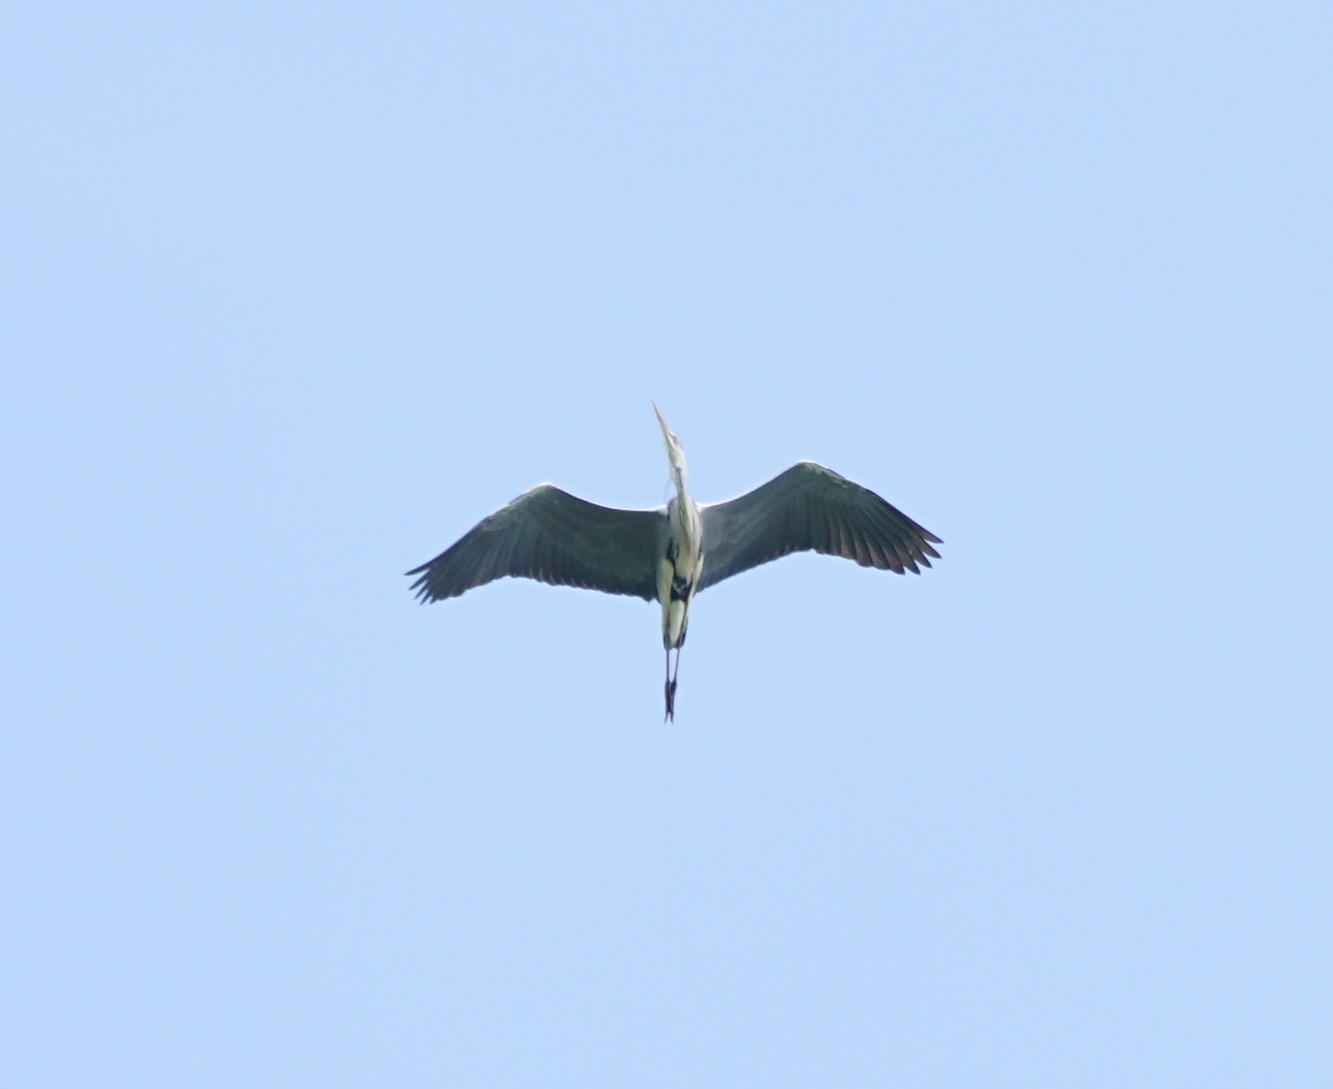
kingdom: Animalia
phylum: Chordata
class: Aves
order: Pelecaniformes
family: Ardeidae
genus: Ardea
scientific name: Ardea cinerea
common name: Grey heron
